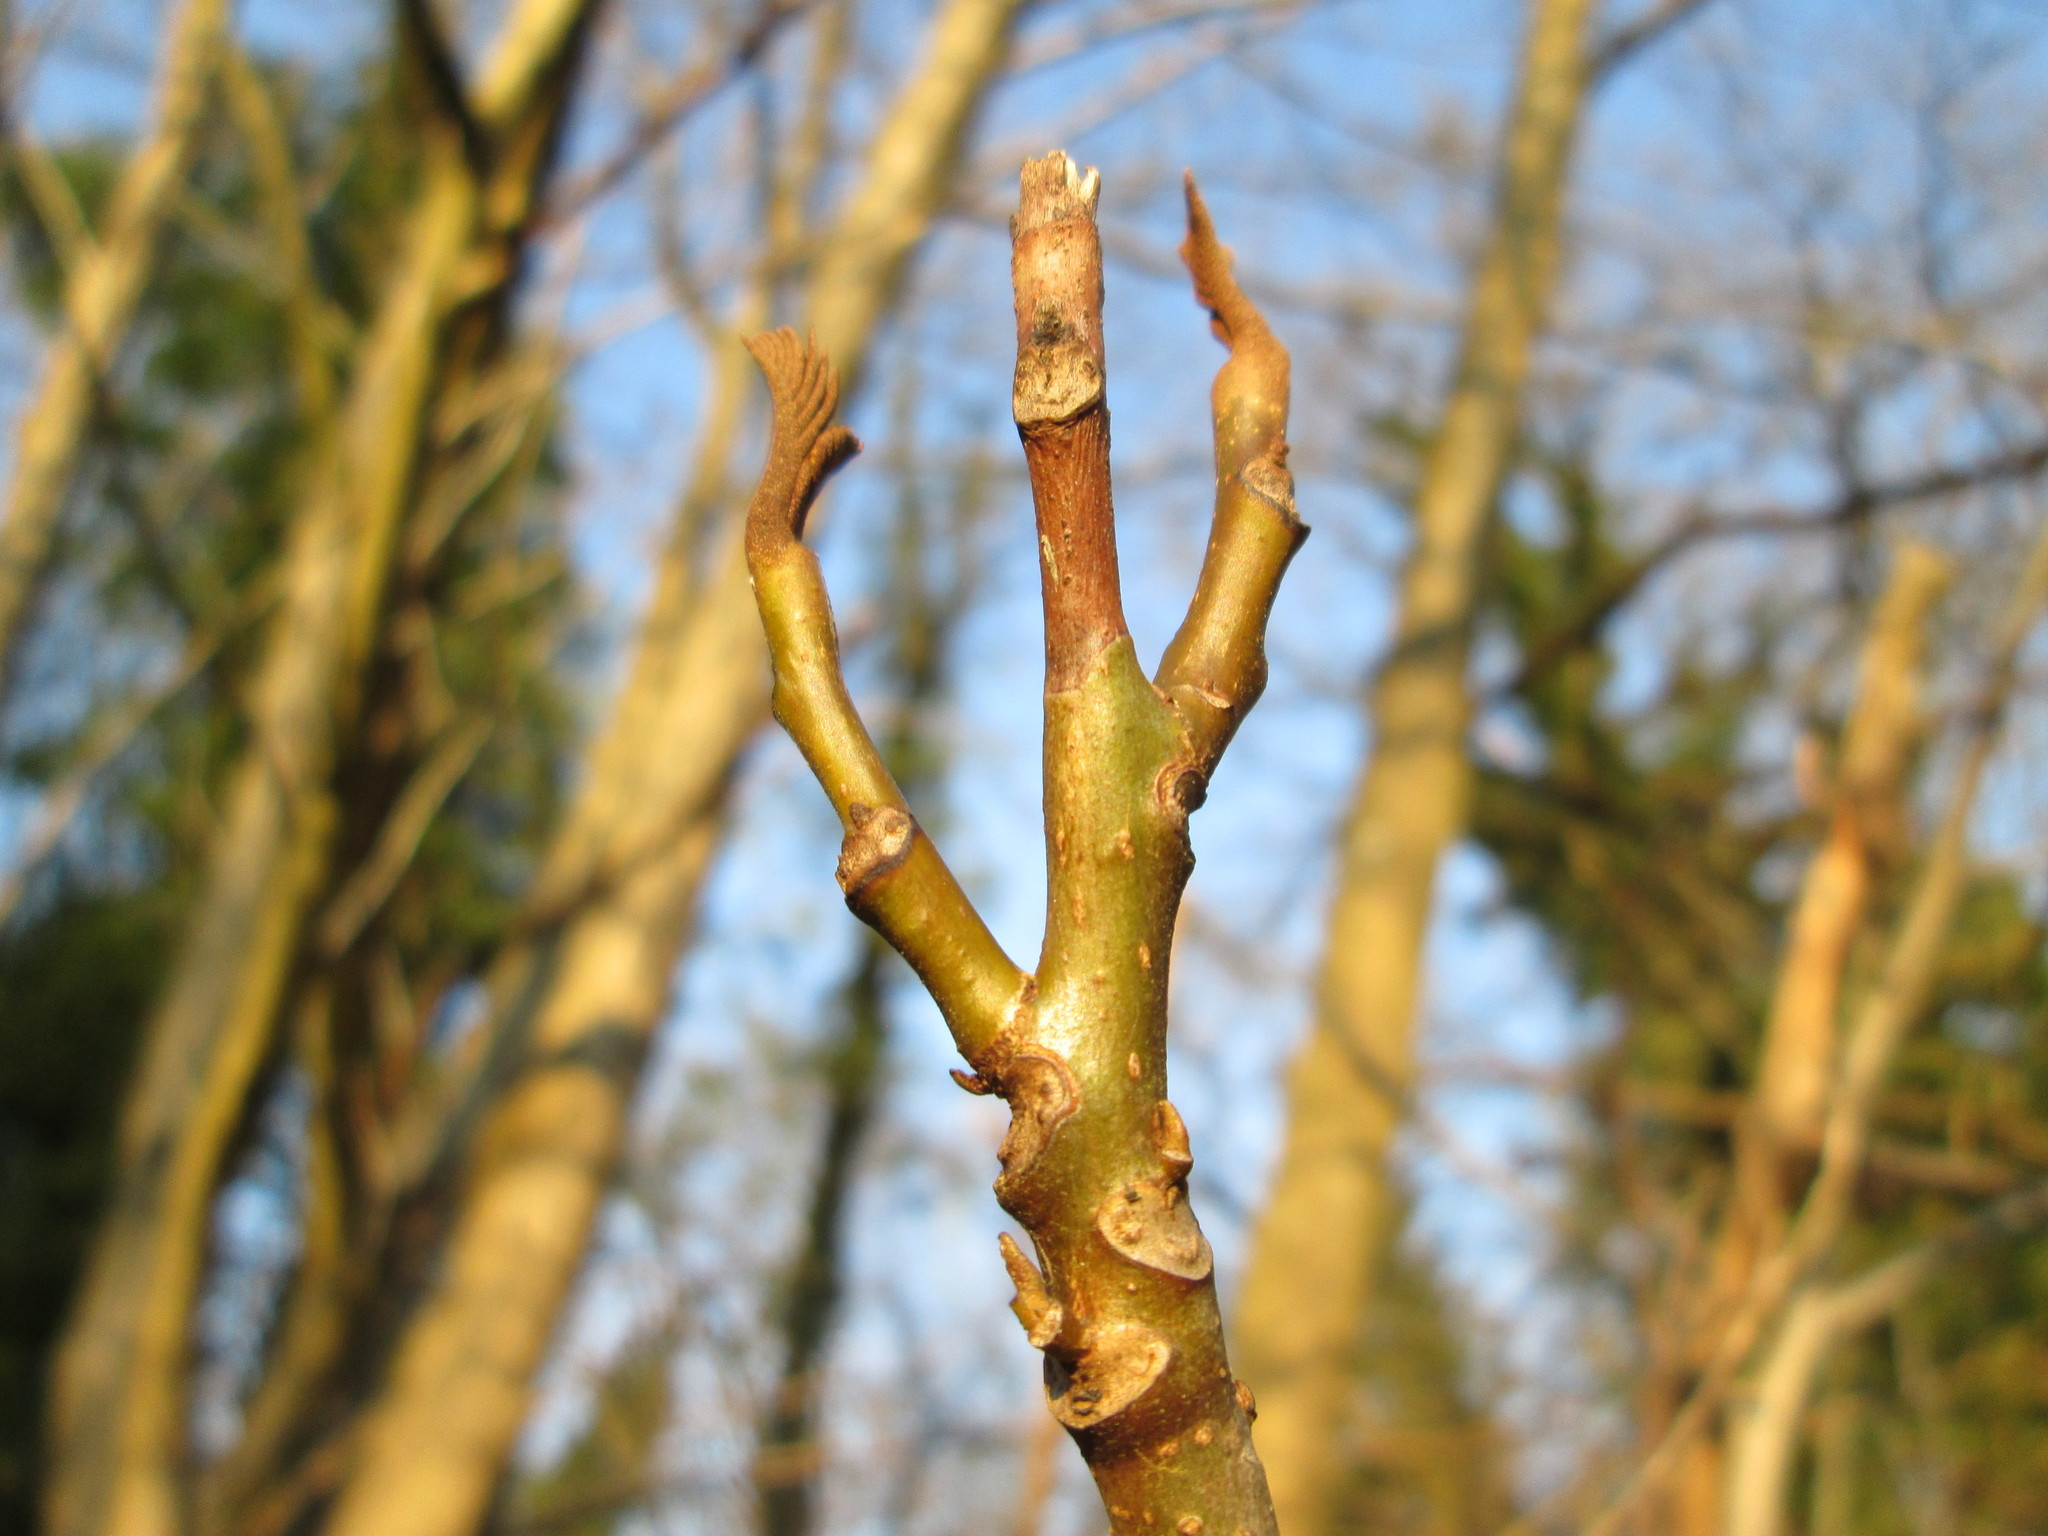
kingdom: Plantae
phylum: Tracheophyta
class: Magnoliopsida
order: Fagales
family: Juglandaceae
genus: Pterocarya
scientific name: Pterocarya fraxinifolia
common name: Caucasian wingnut
